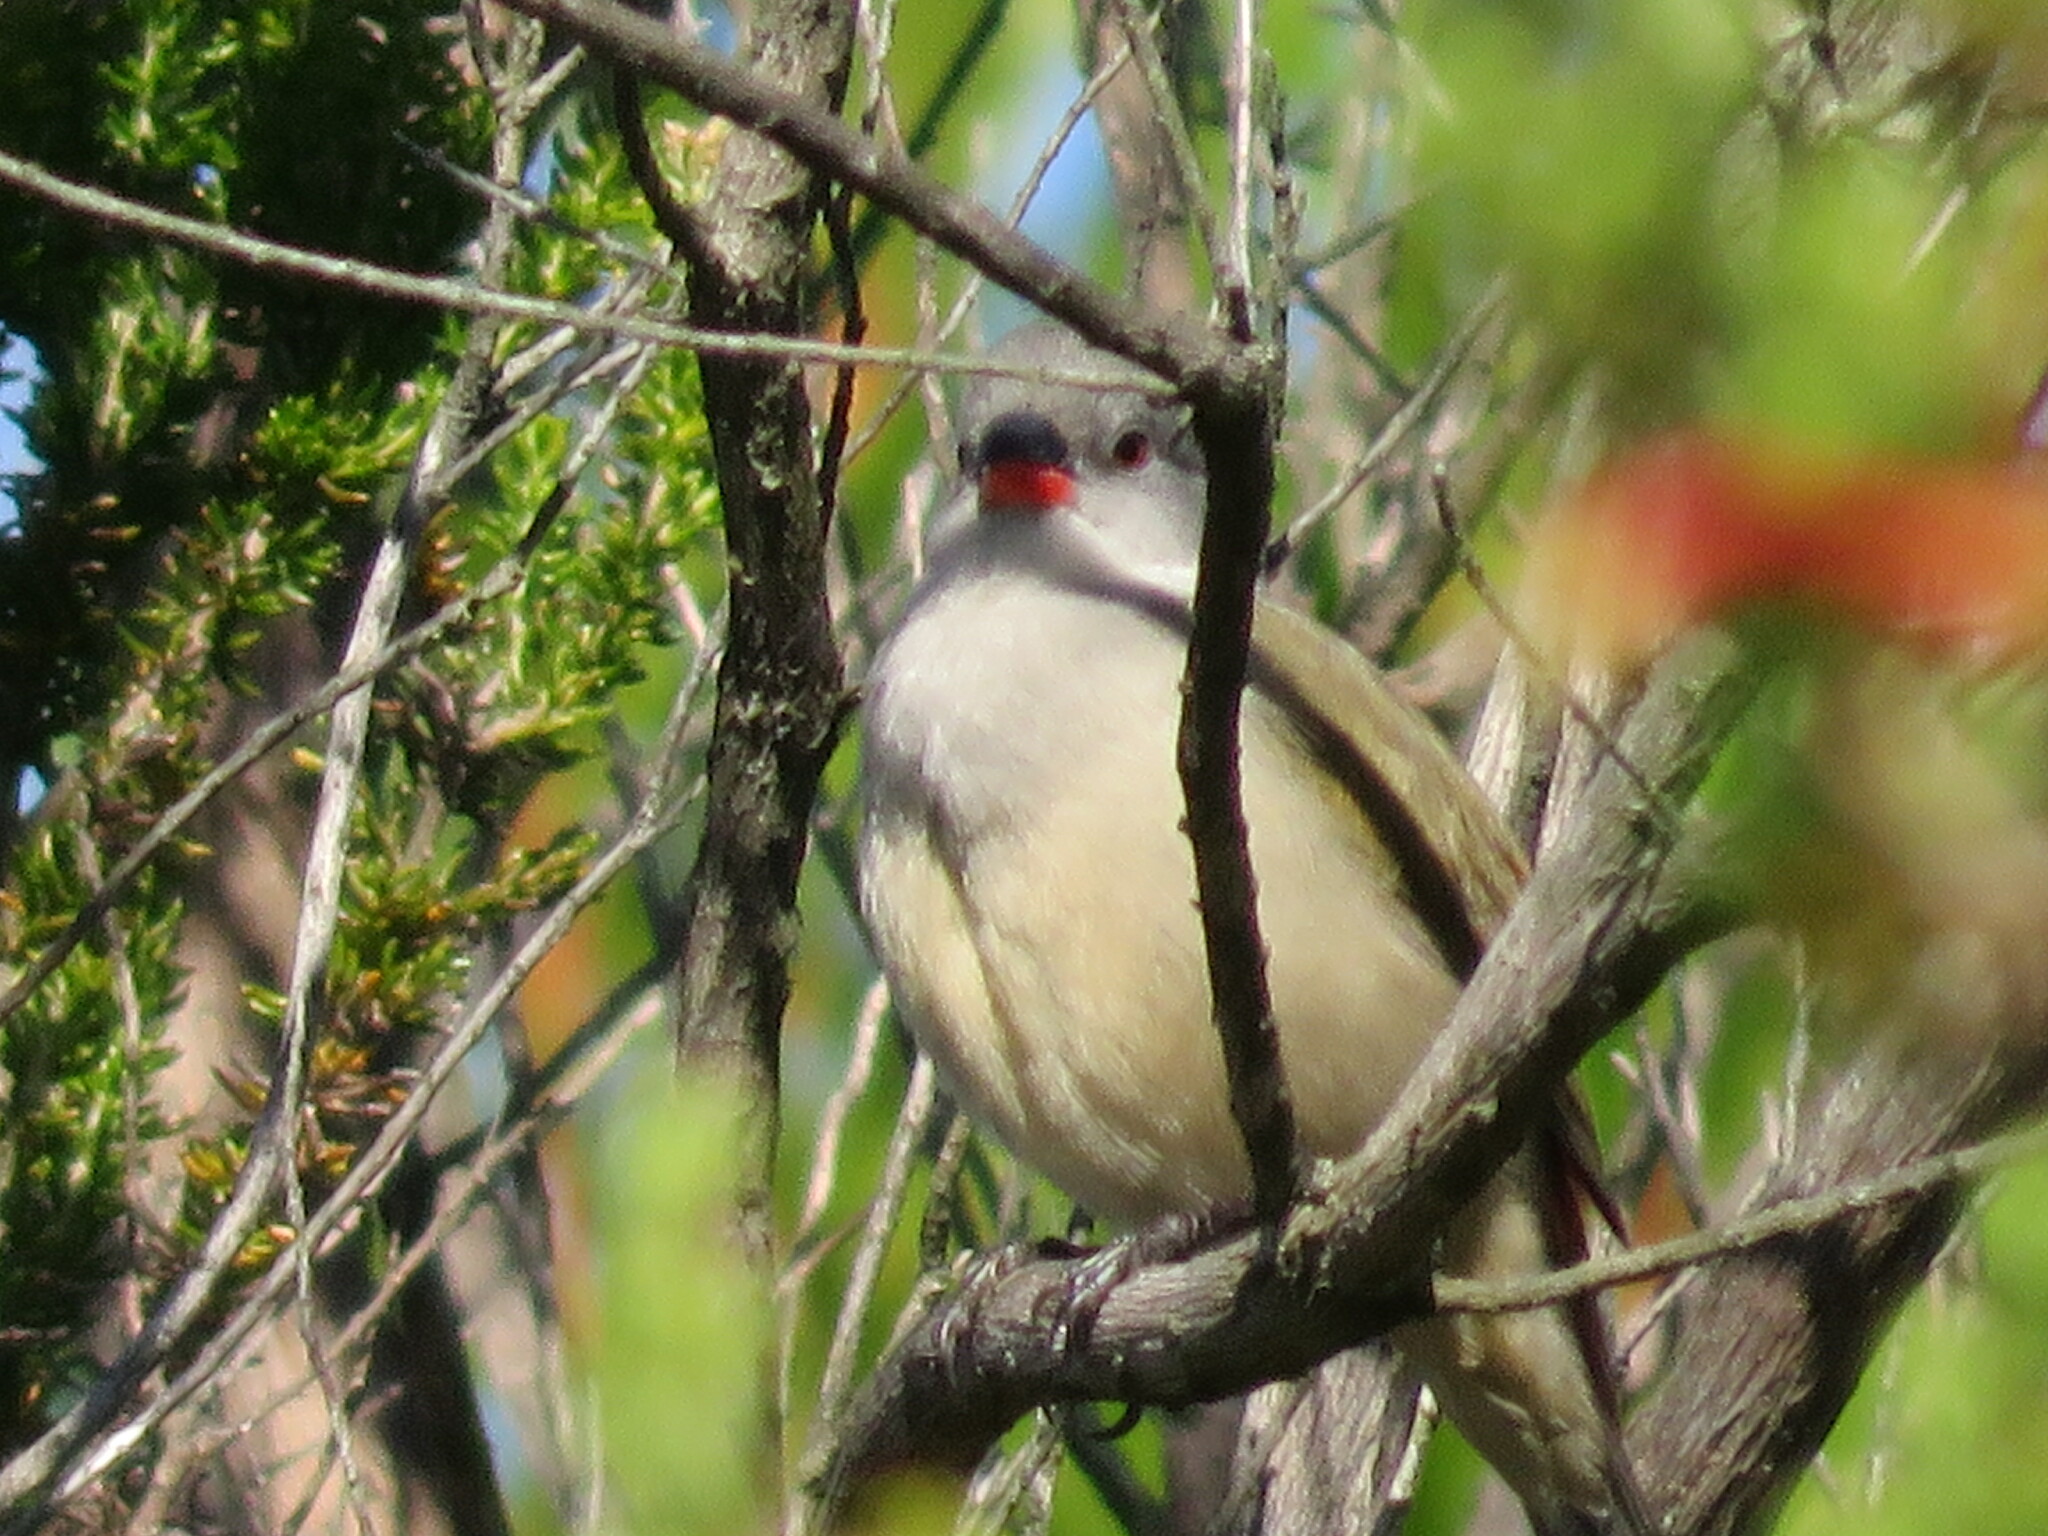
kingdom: Animalia
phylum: Chordata
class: Aves
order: Passeriformes
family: Estrildidae
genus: Coccopygia
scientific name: Coccopygia melanotis
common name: Swee waxbill
